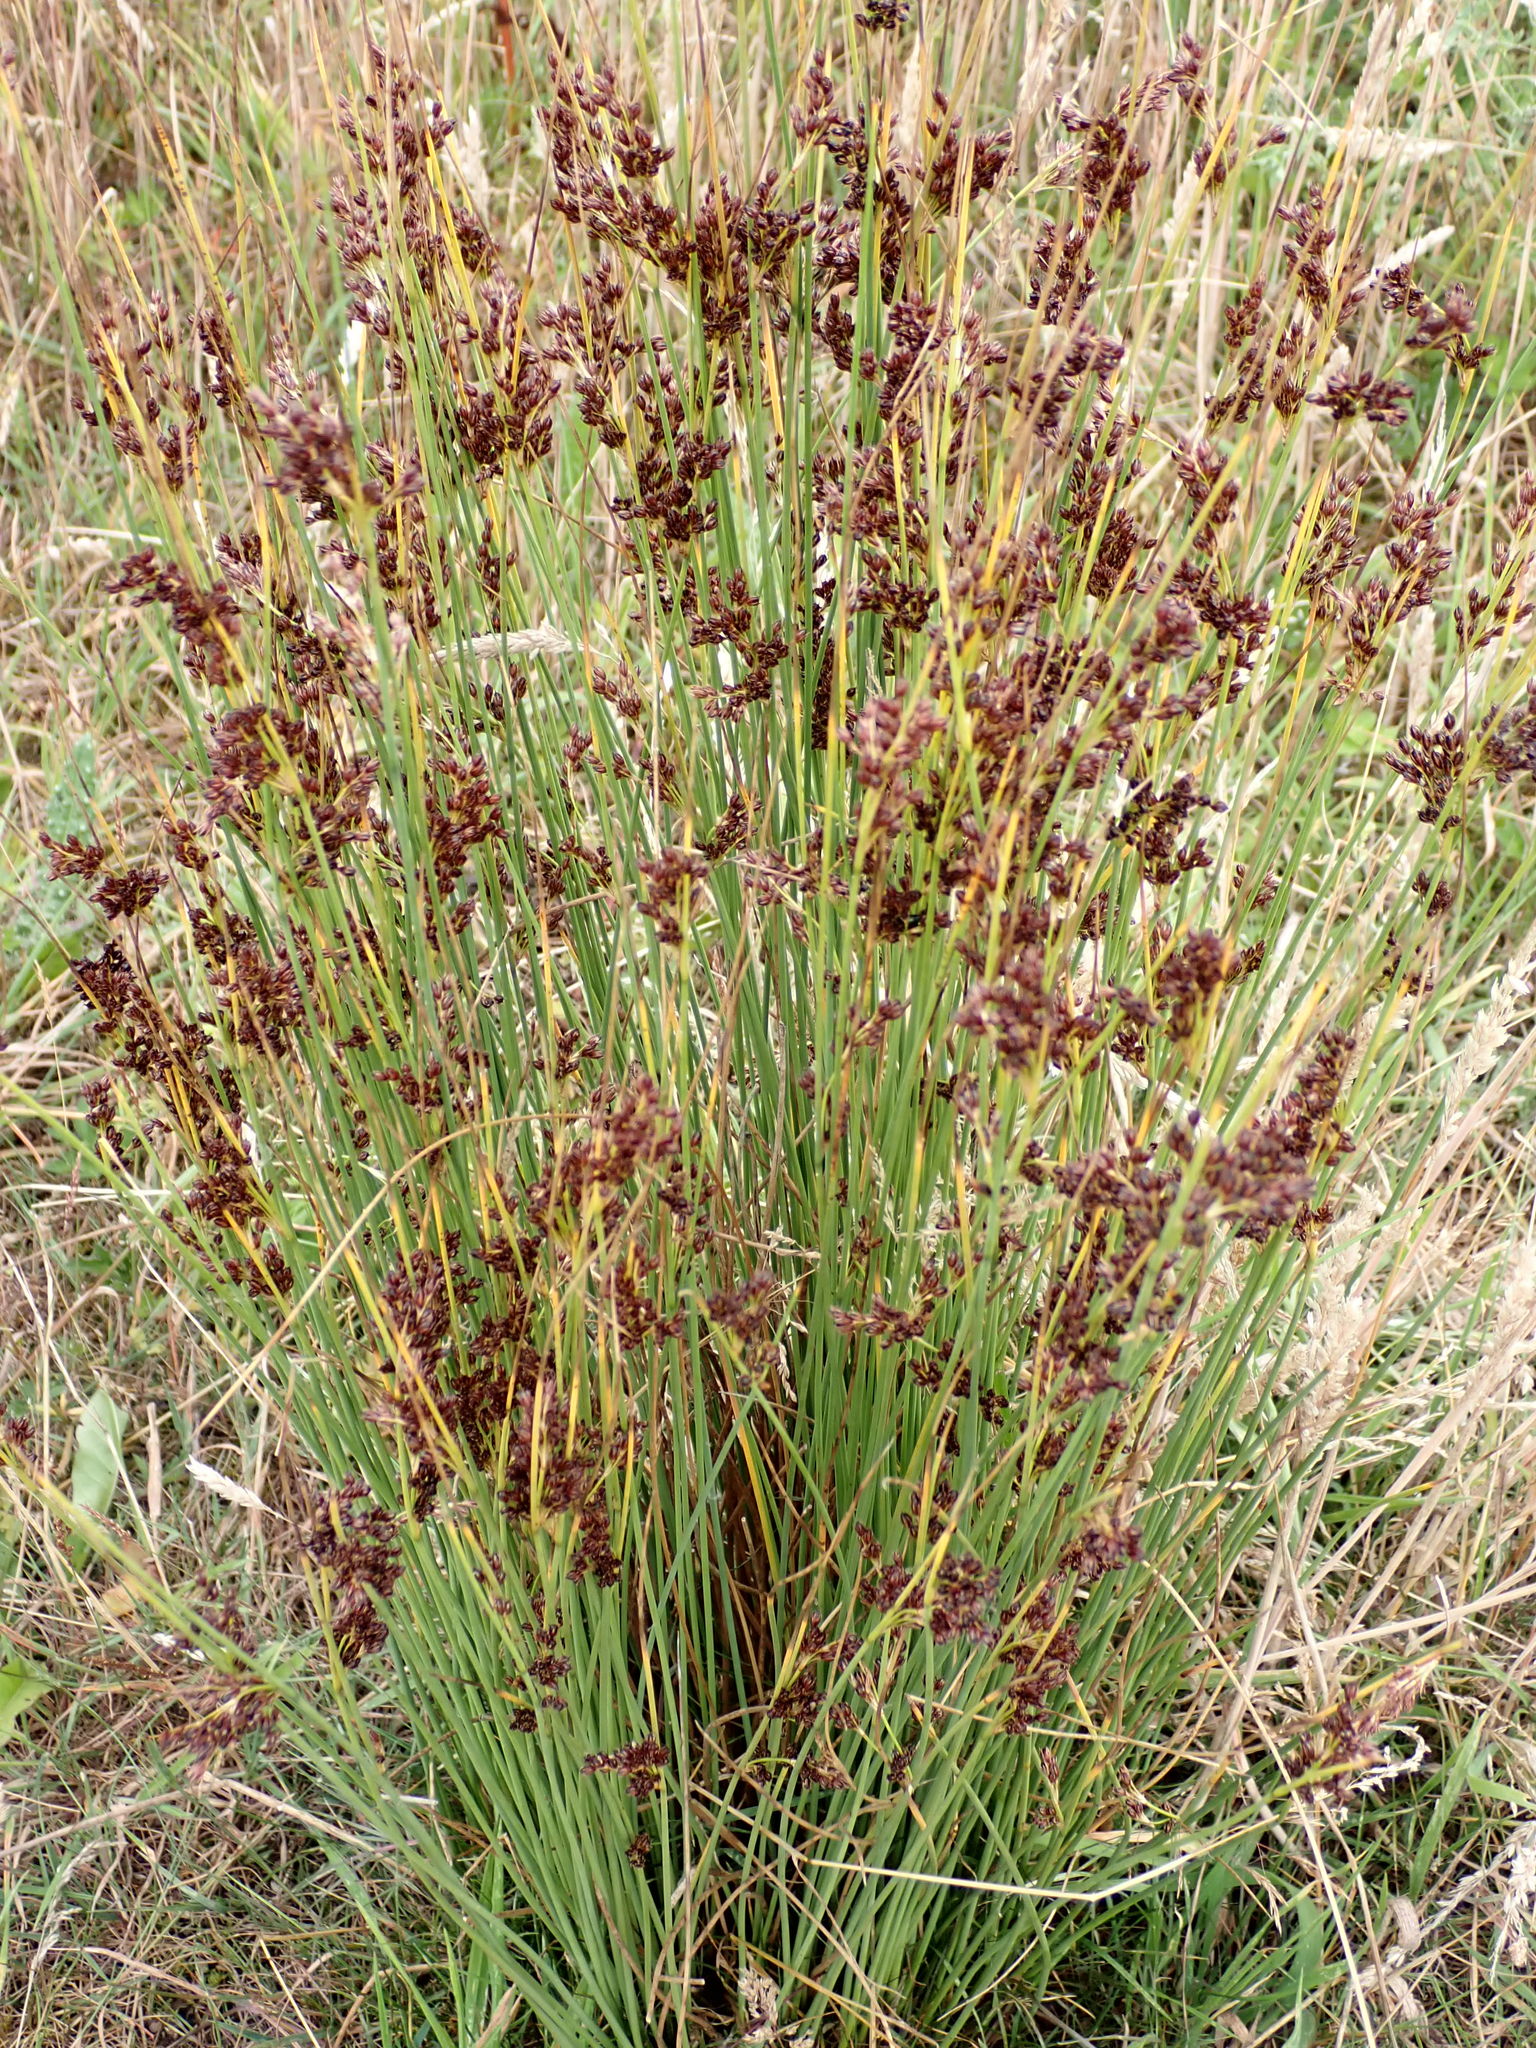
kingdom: Plantae
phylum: Tracheophyta
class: Liliopsida
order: Poales
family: Juncaceae
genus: Juncus
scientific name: Juncus inflexus
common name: Hard rush
